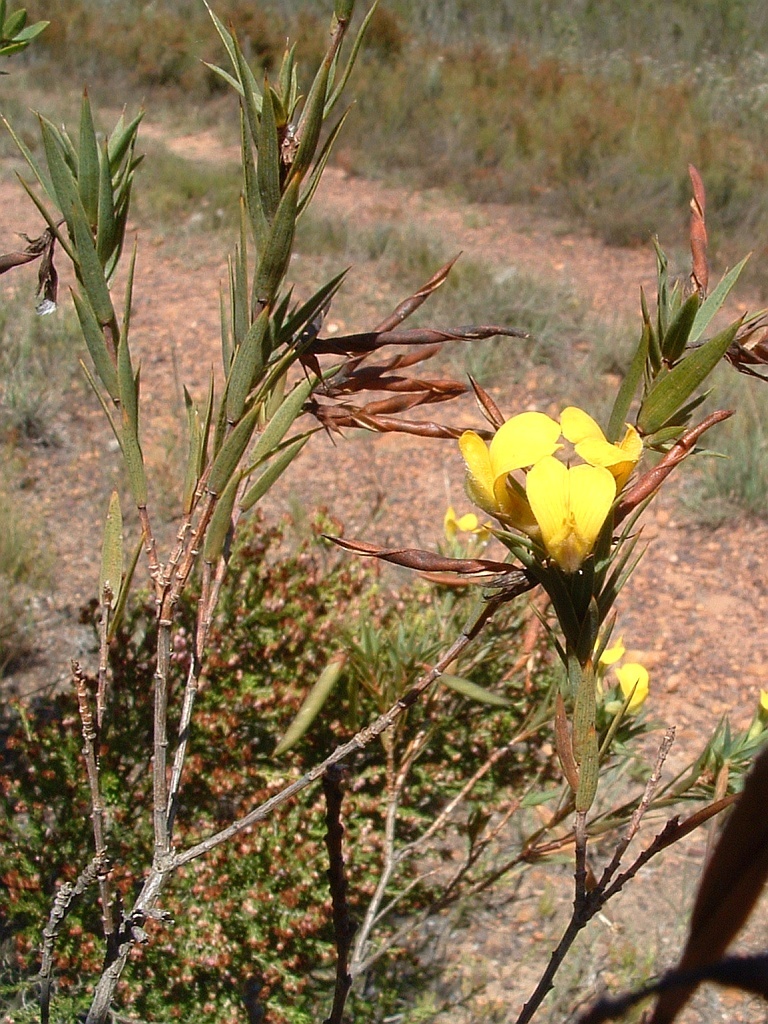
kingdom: Plantae
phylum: Tracheophyta
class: Magnoliopsida
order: Fabales
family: Fabaceae
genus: Aspalathus
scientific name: Aspalathus angustifolia
